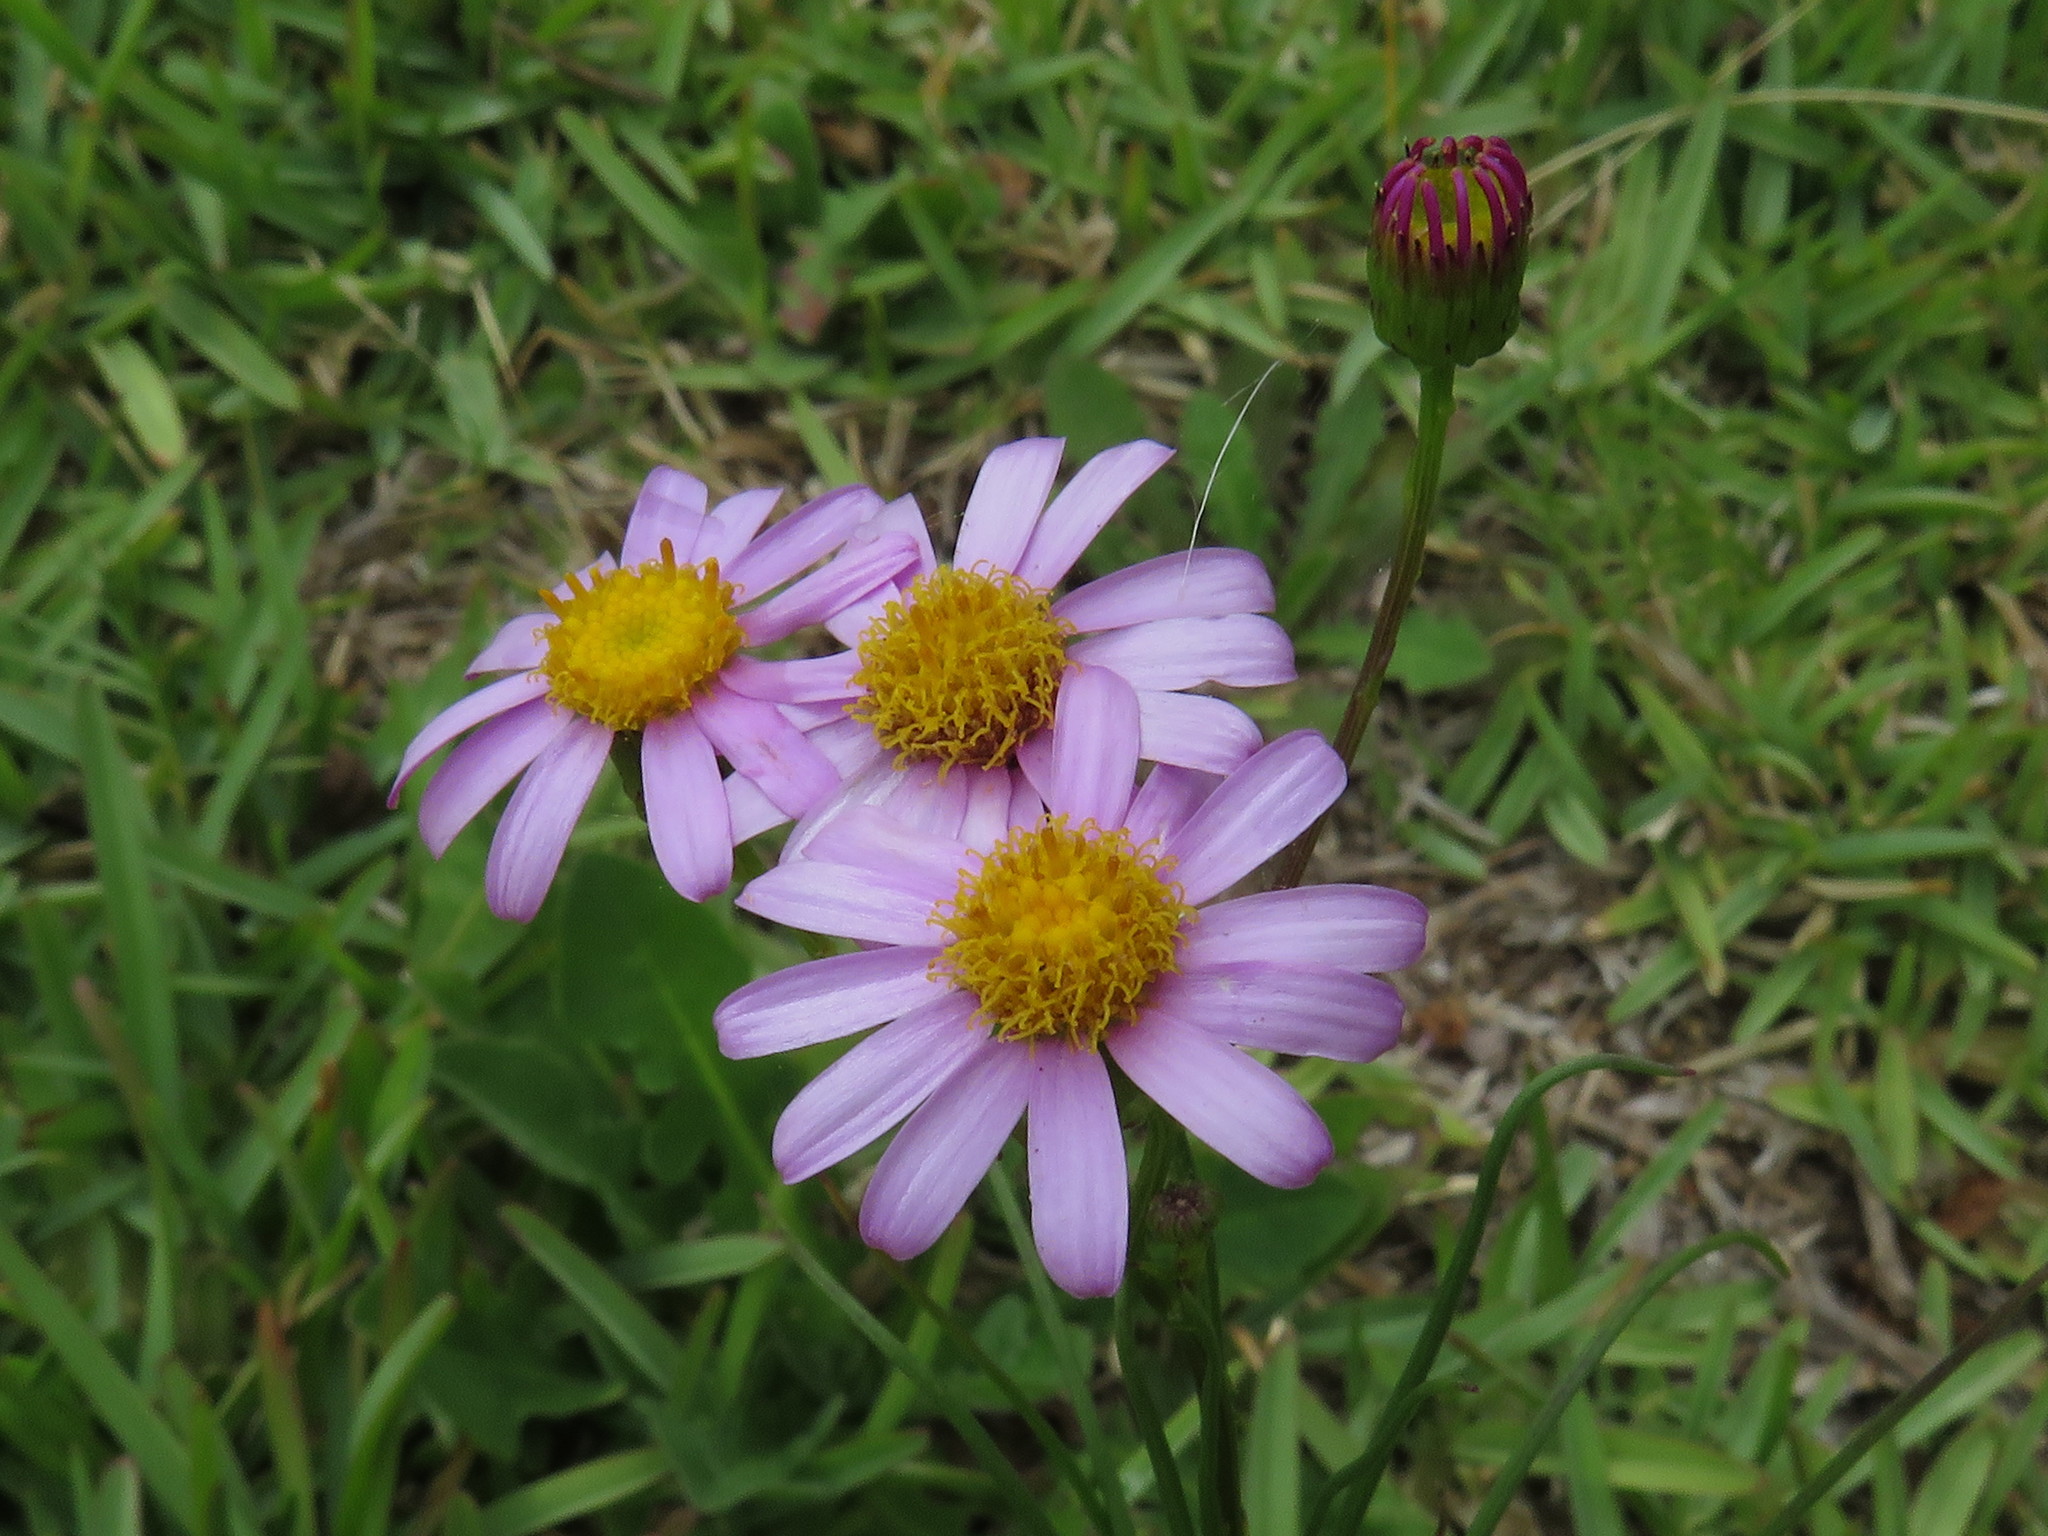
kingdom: Plantae
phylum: Tracheophyta
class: Magnoliopsida
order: Asterales
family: Asteraceae
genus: Senecio
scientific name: Senecio umbellatus
